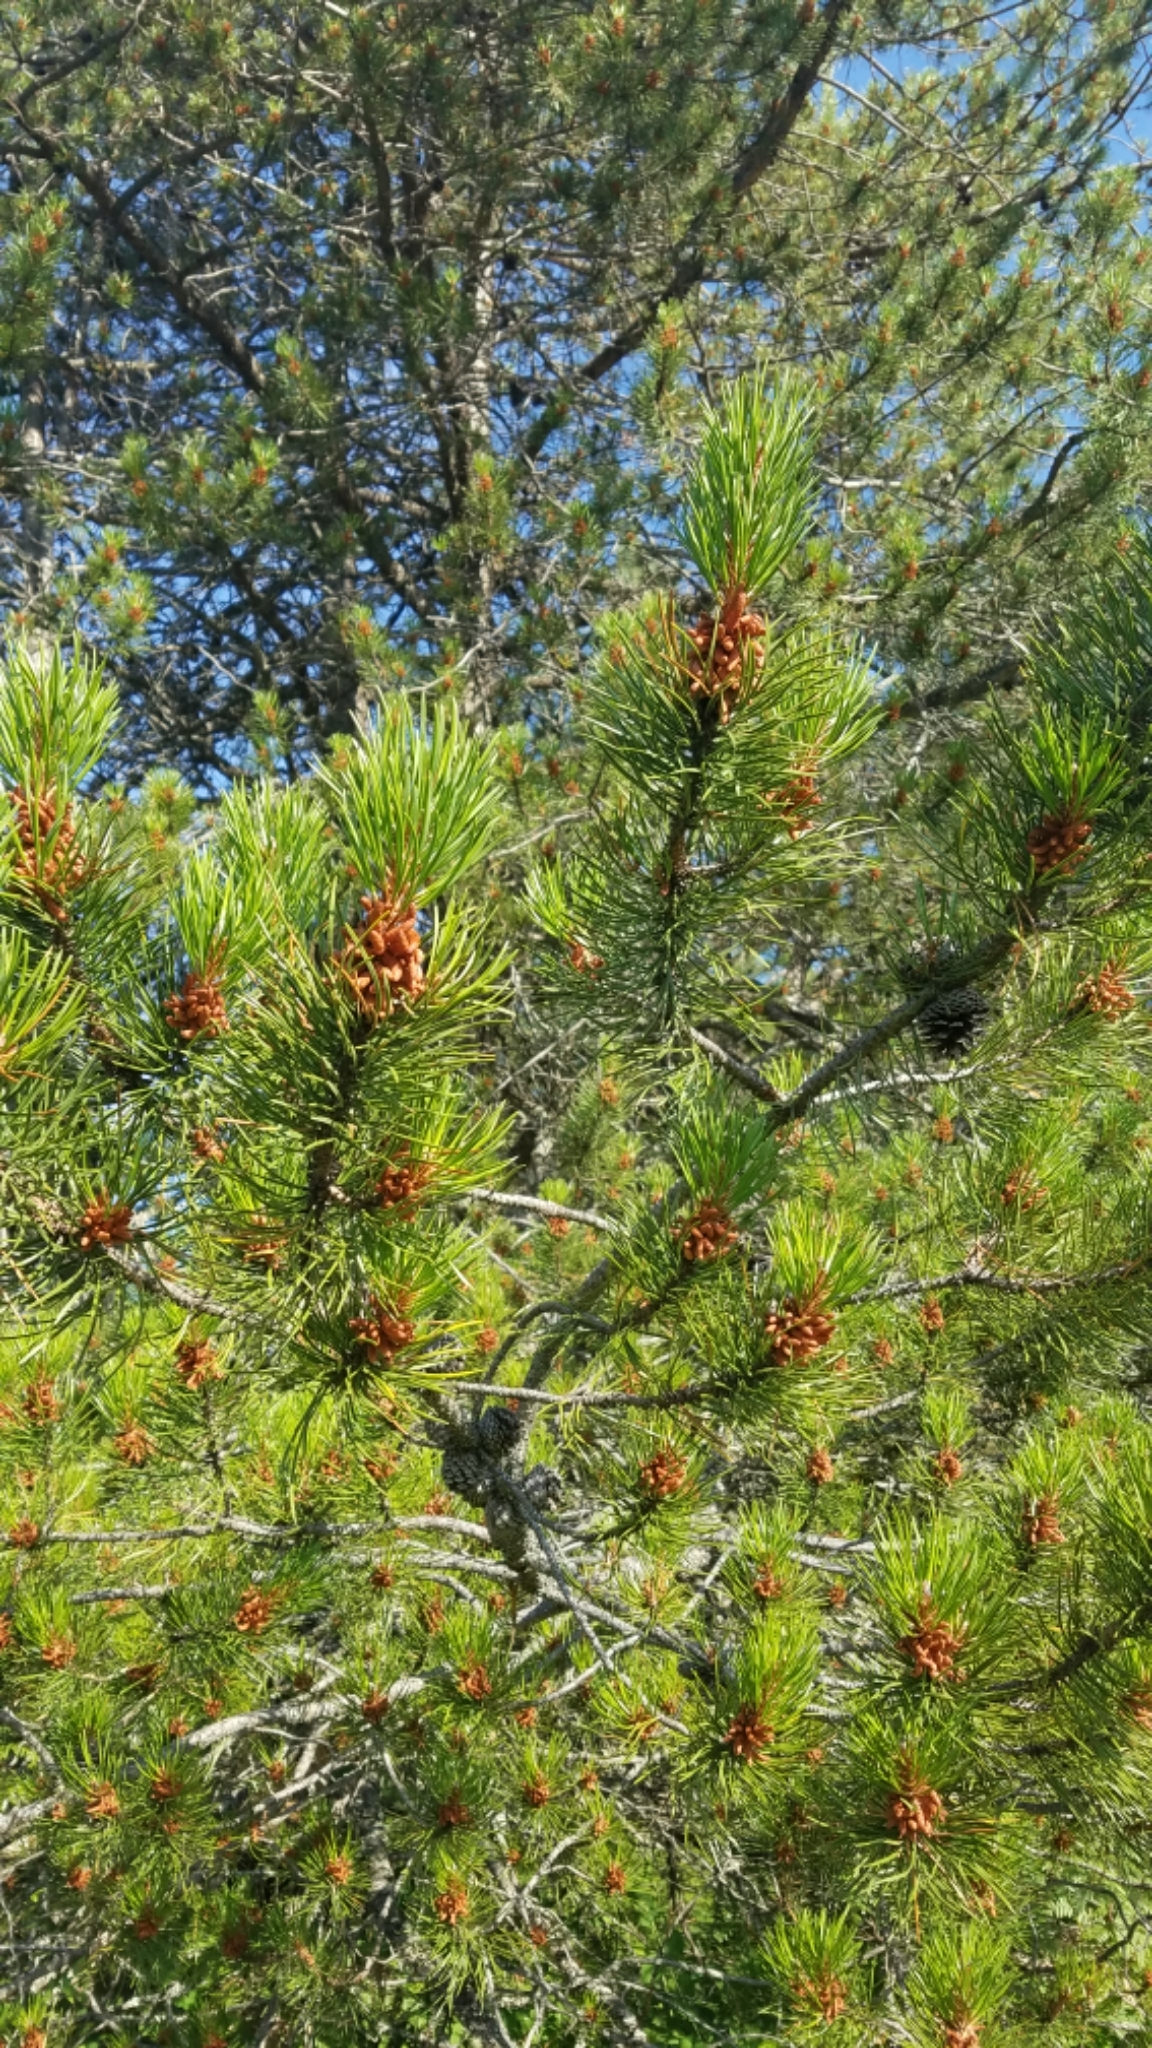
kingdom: Plantae
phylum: Tracheophyta
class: Pinopsida
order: Pinales
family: Pinaceae
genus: Pinus
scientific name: Pinus contorta
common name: Lodgepole pine
